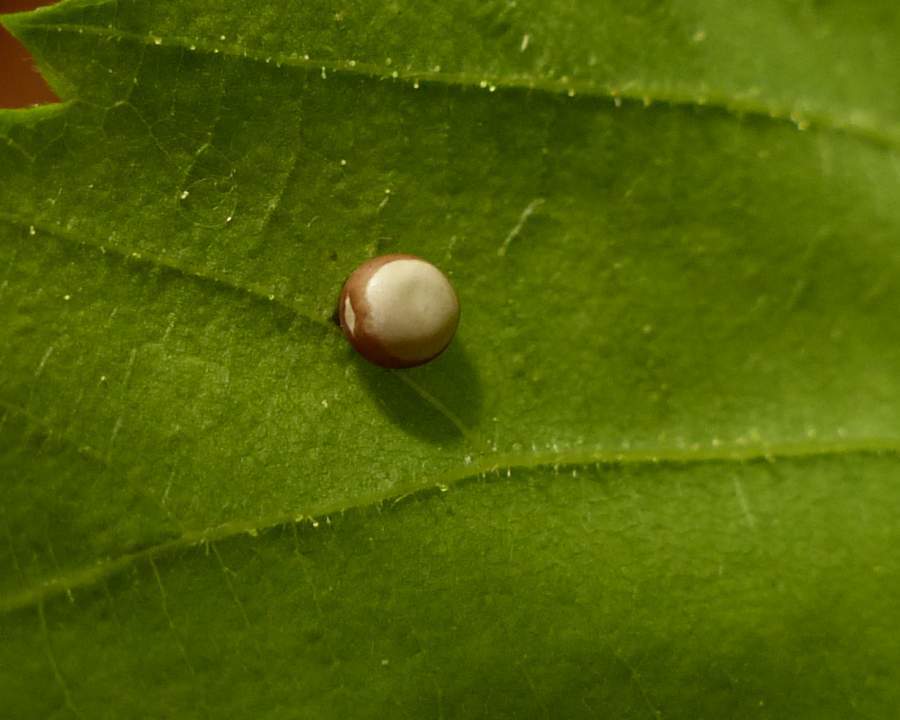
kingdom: Animalia
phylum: Arthropoda
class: Insecta
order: Lepidoptera
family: Saturniidae
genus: Antheraea
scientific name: Antheraea polyphemus
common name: Polyphemus moth
